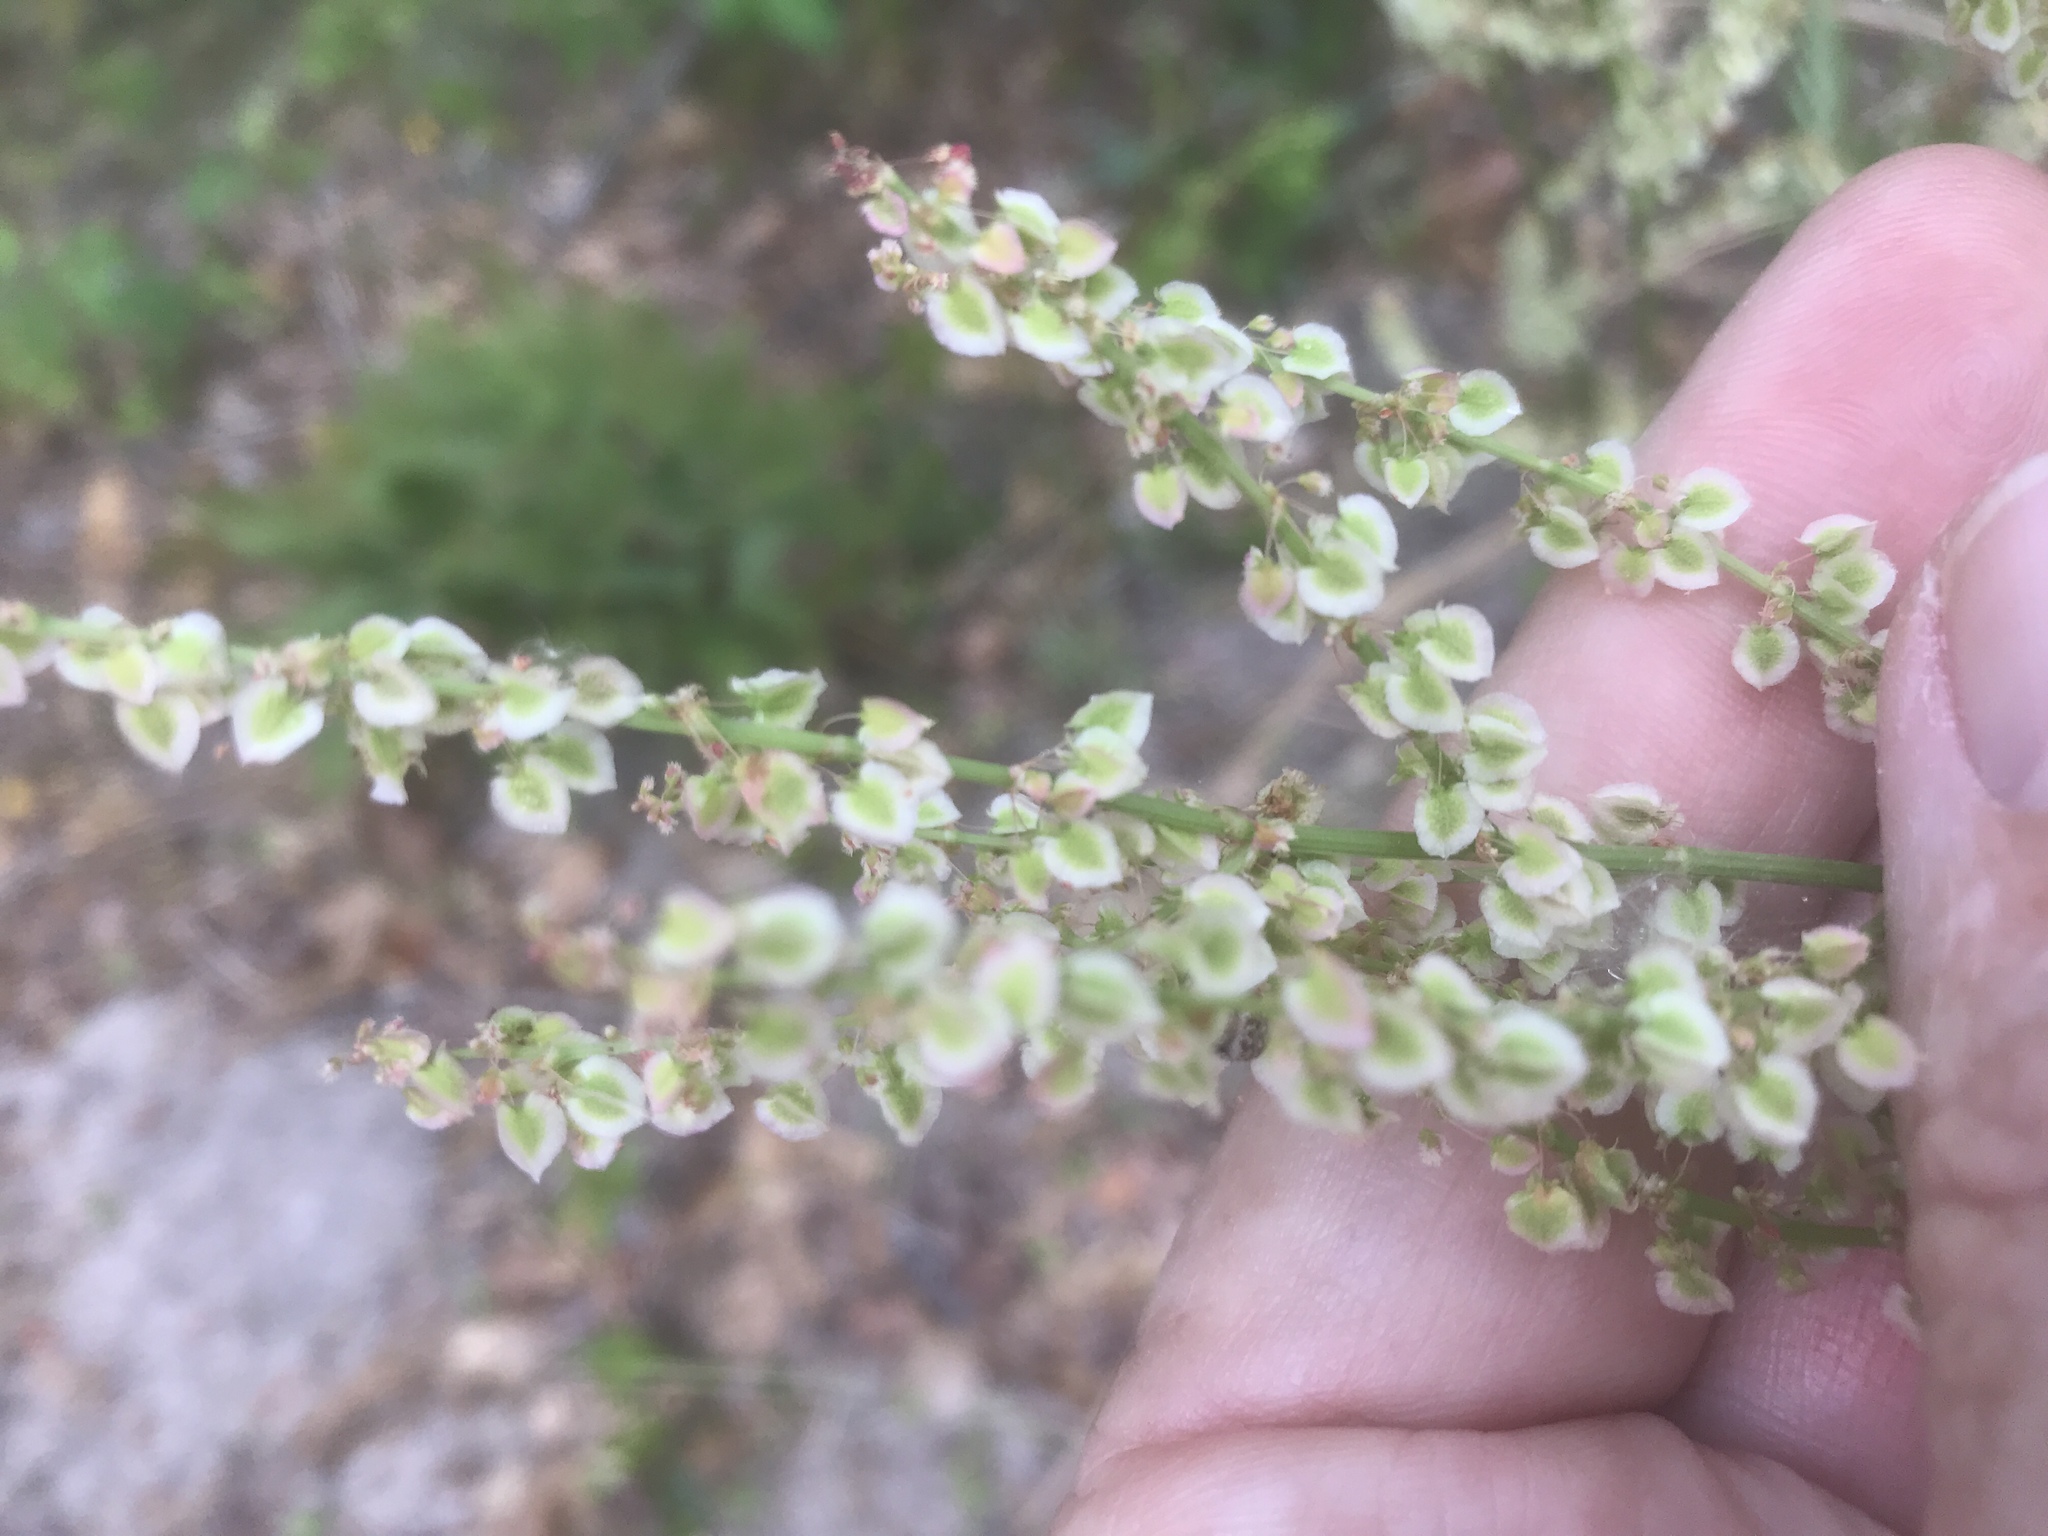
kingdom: Plantae
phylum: Tracheophyta
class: Magnoliopsida
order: Caryophyllales
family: Polygonaceae
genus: Rumex
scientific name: Rumex hastatulus
